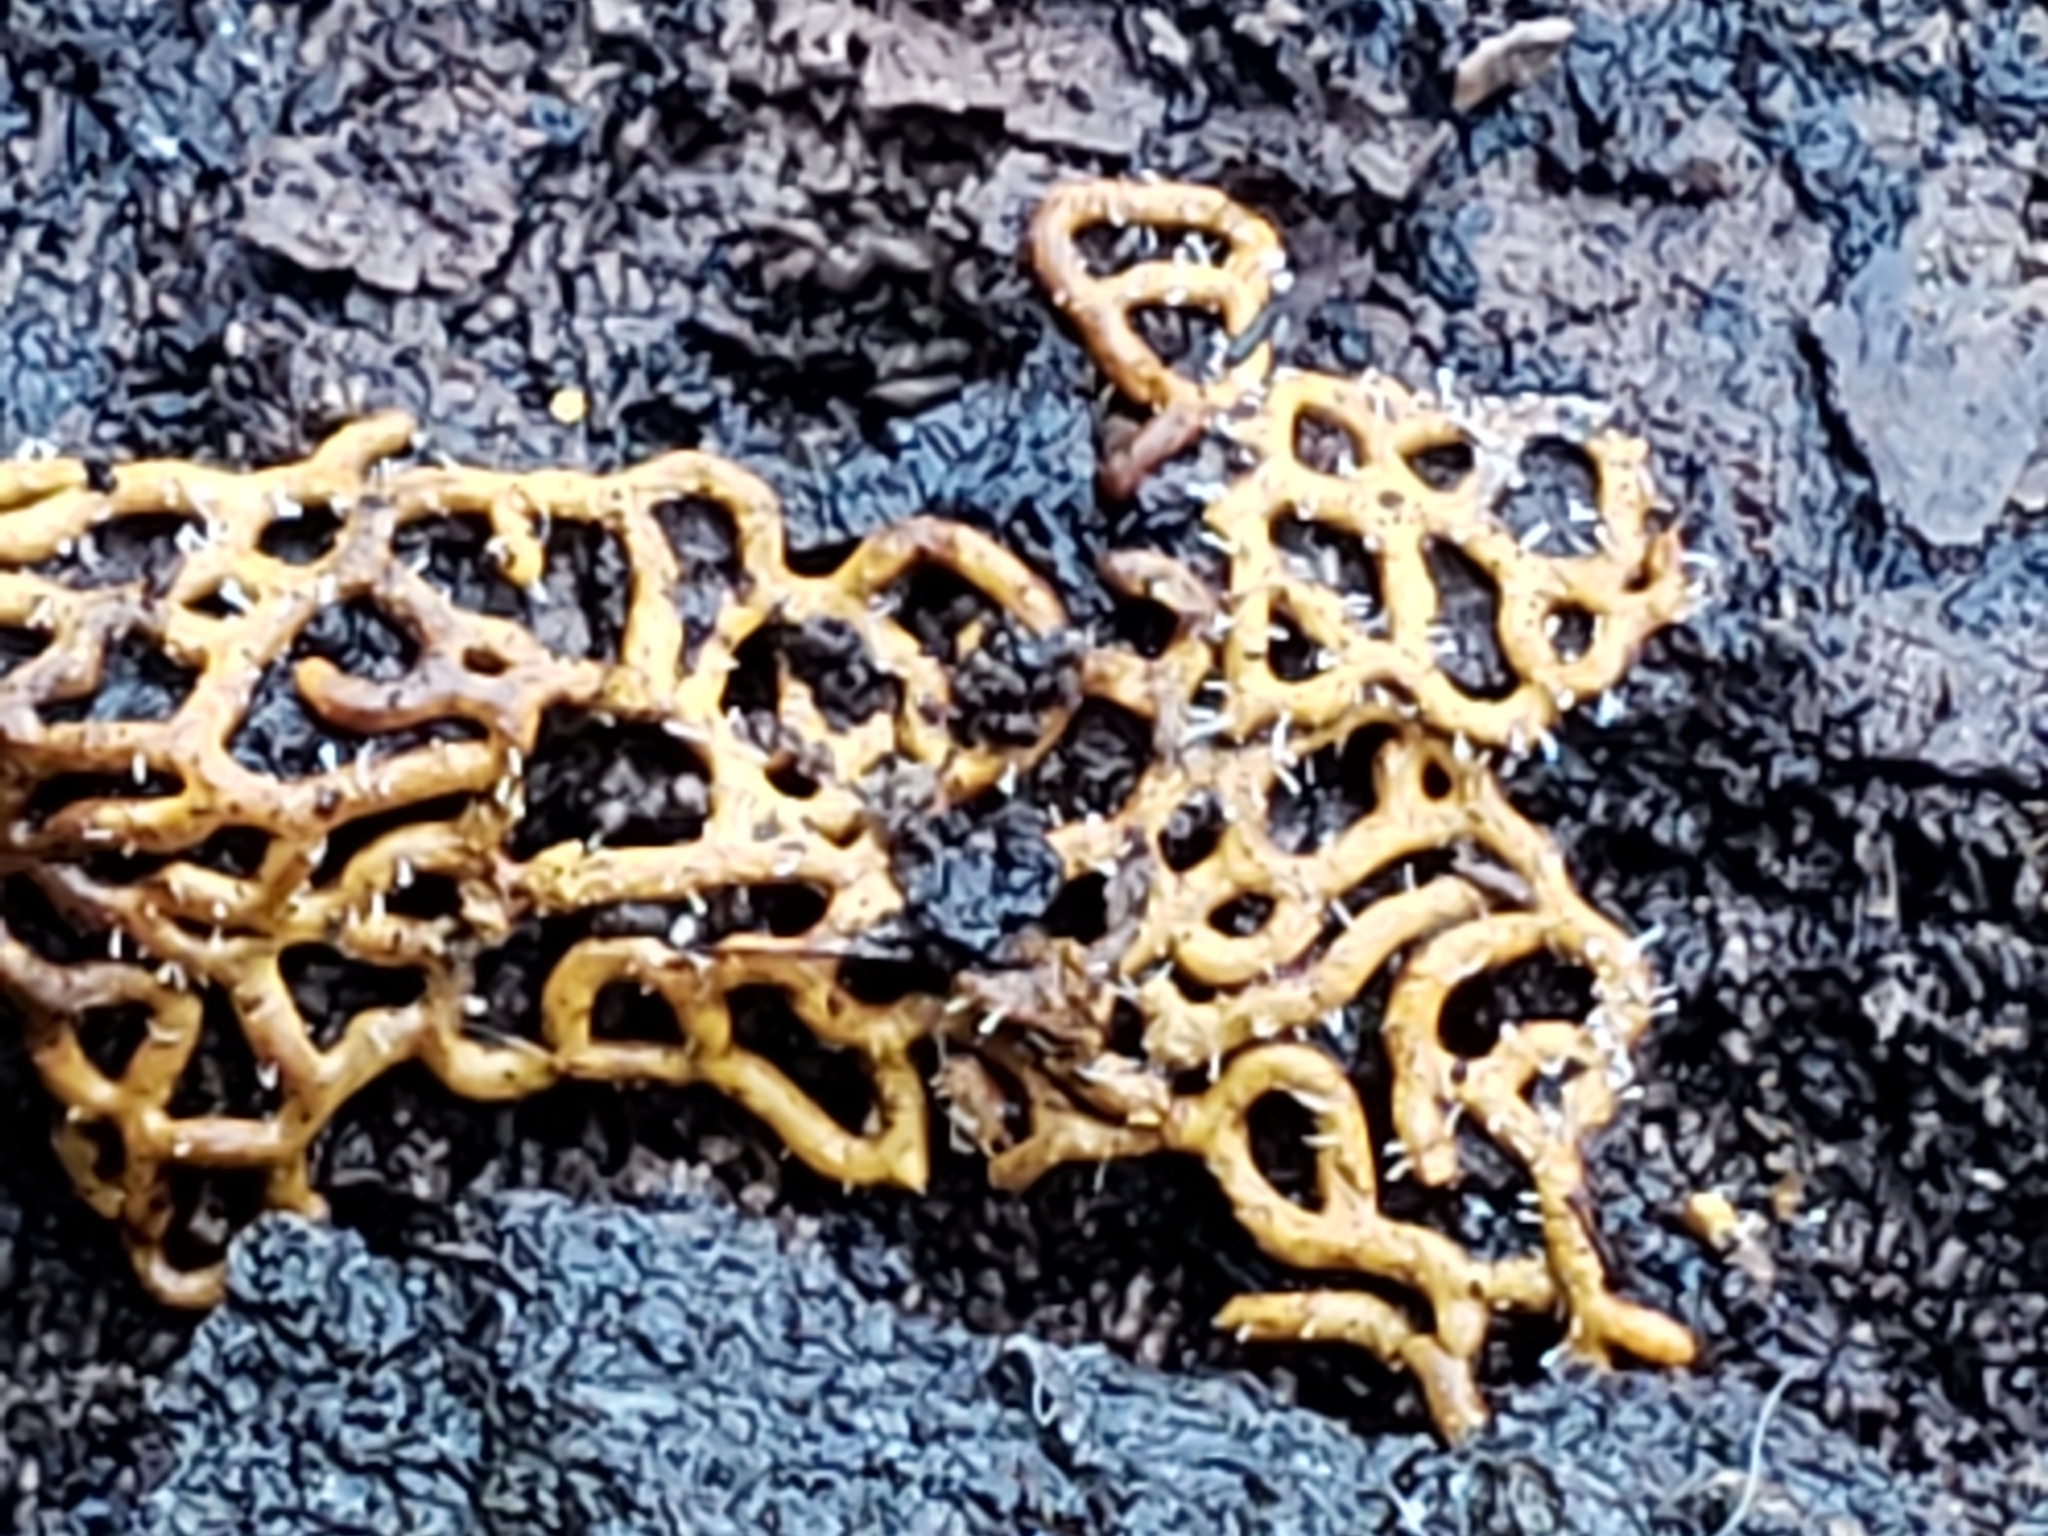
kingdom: Protozoa
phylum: Mycetozoa
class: Myxomycetes
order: Trichiales
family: Arcyriaceae
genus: Hemitrichia
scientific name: Hemitrichia serpula
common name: Pretzel slime mold
